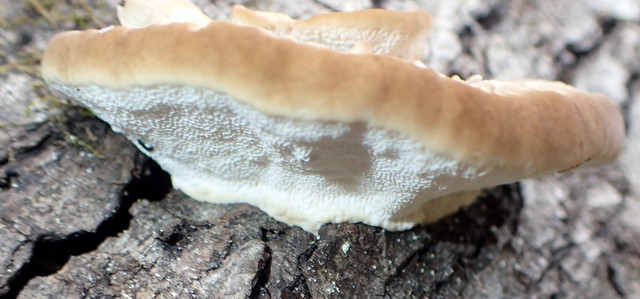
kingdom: Fungi
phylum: Basidiomycota
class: Agaricomycetes
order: Polyporales
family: Polyporaceae
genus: Trametes
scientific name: Trametes lactinea
